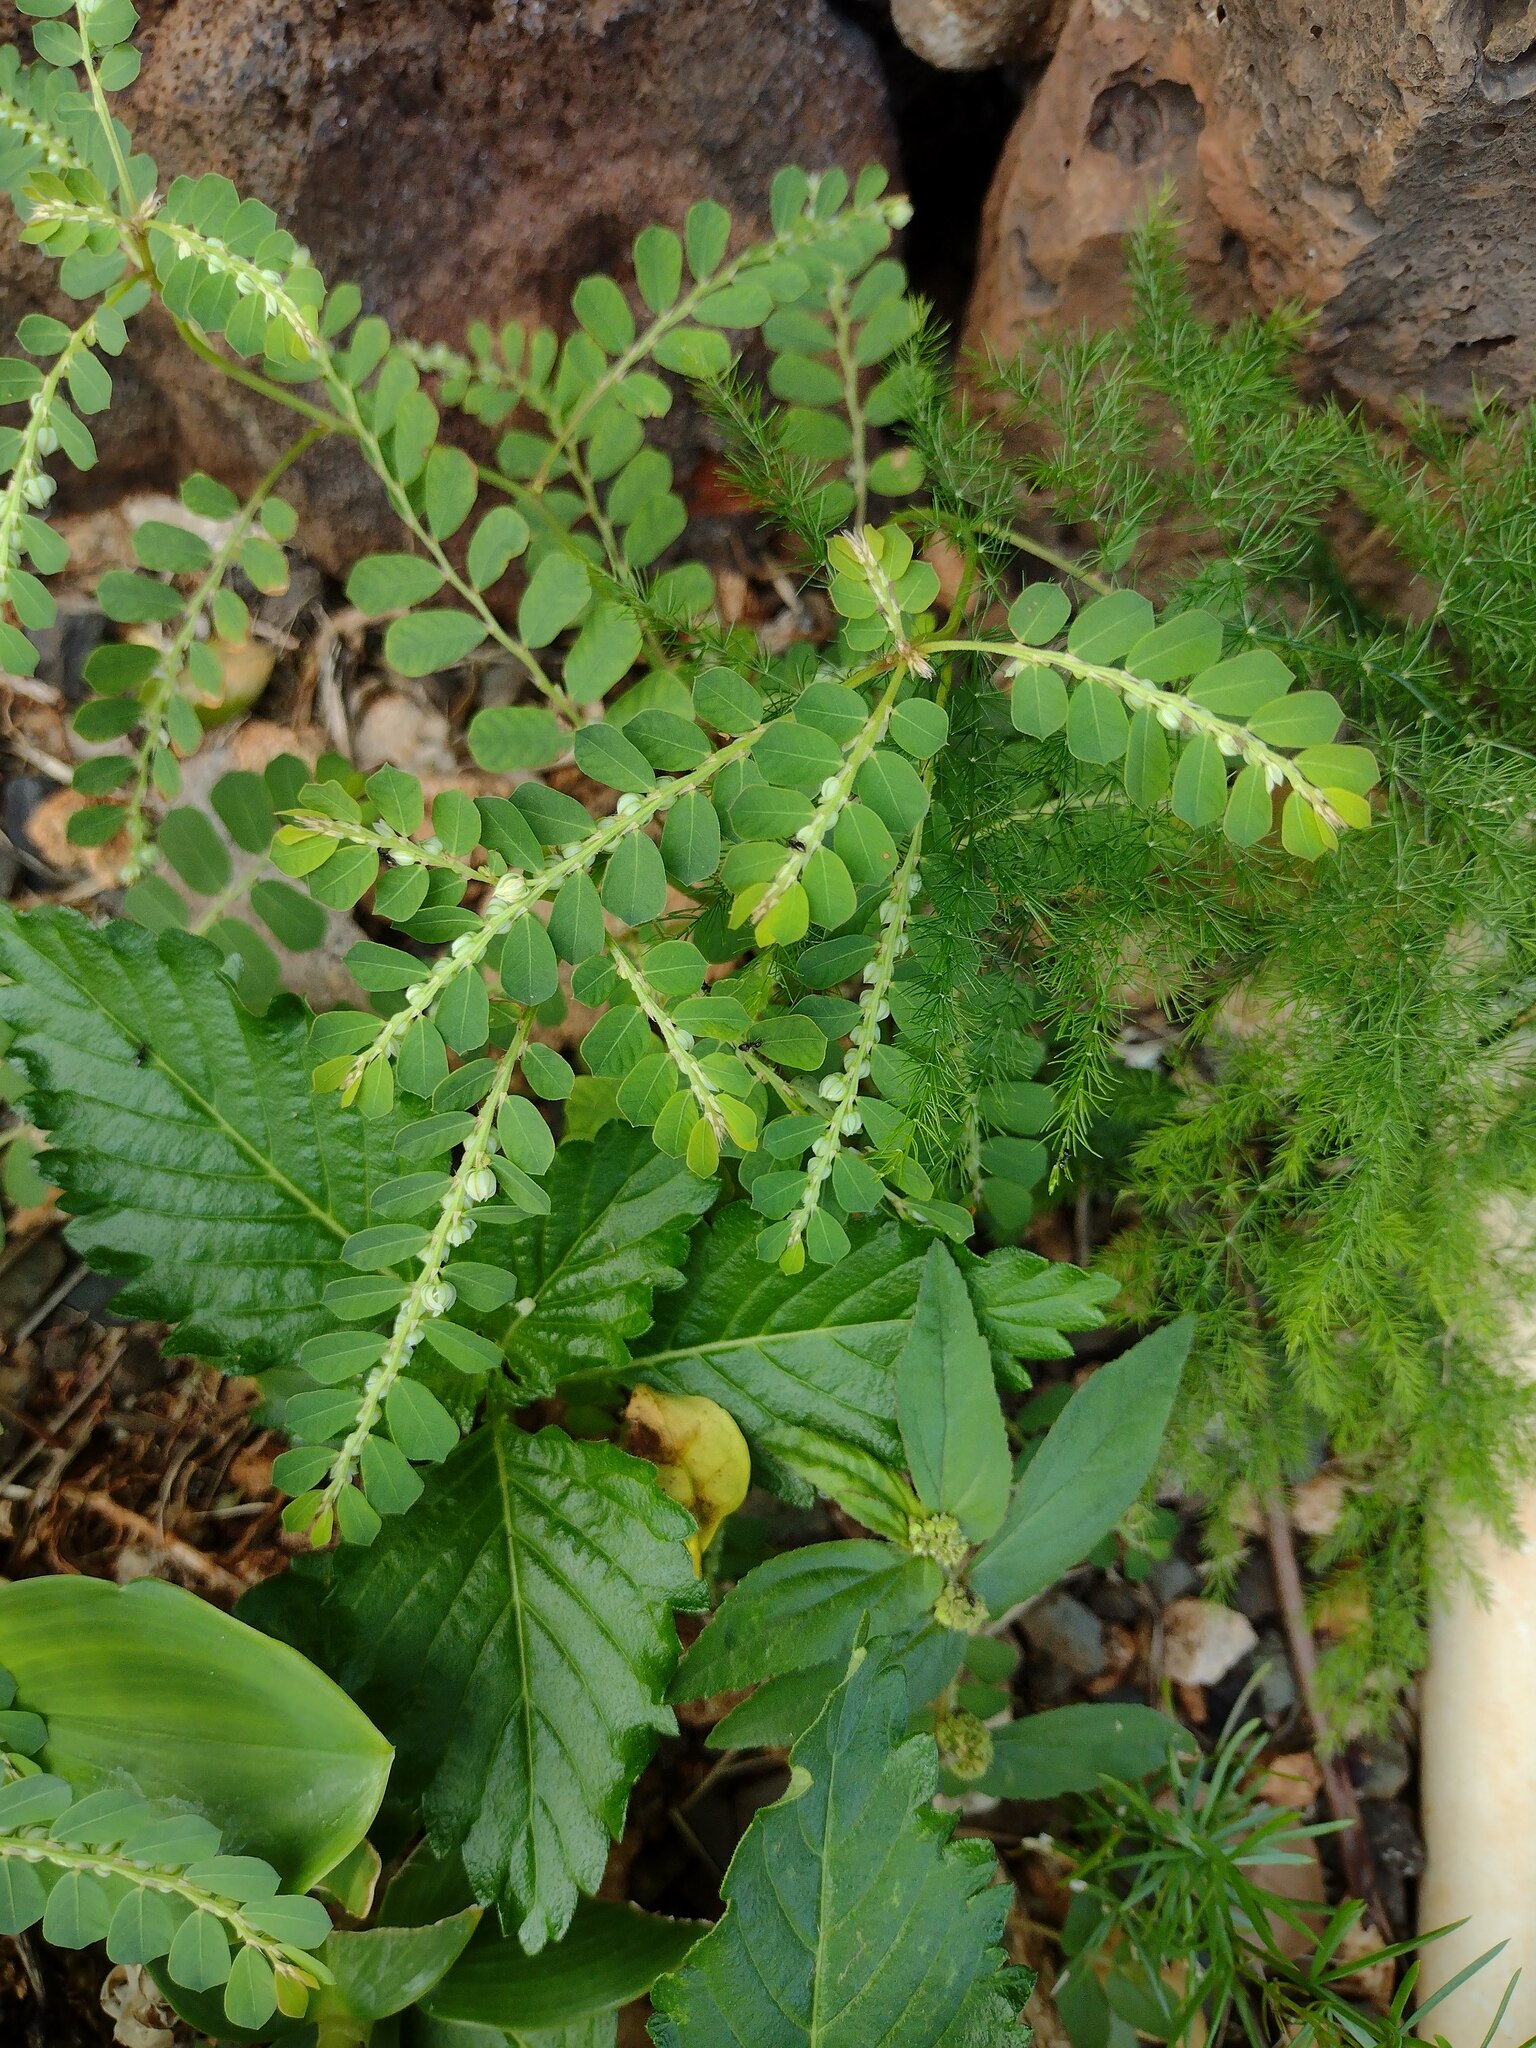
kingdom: Plantae
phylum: Tracheophyta
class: Magnoliopsida
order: Malpighiales
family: Phyllanthaceae
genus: Phyllanthus
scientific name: Phyllanthus leucanthus
